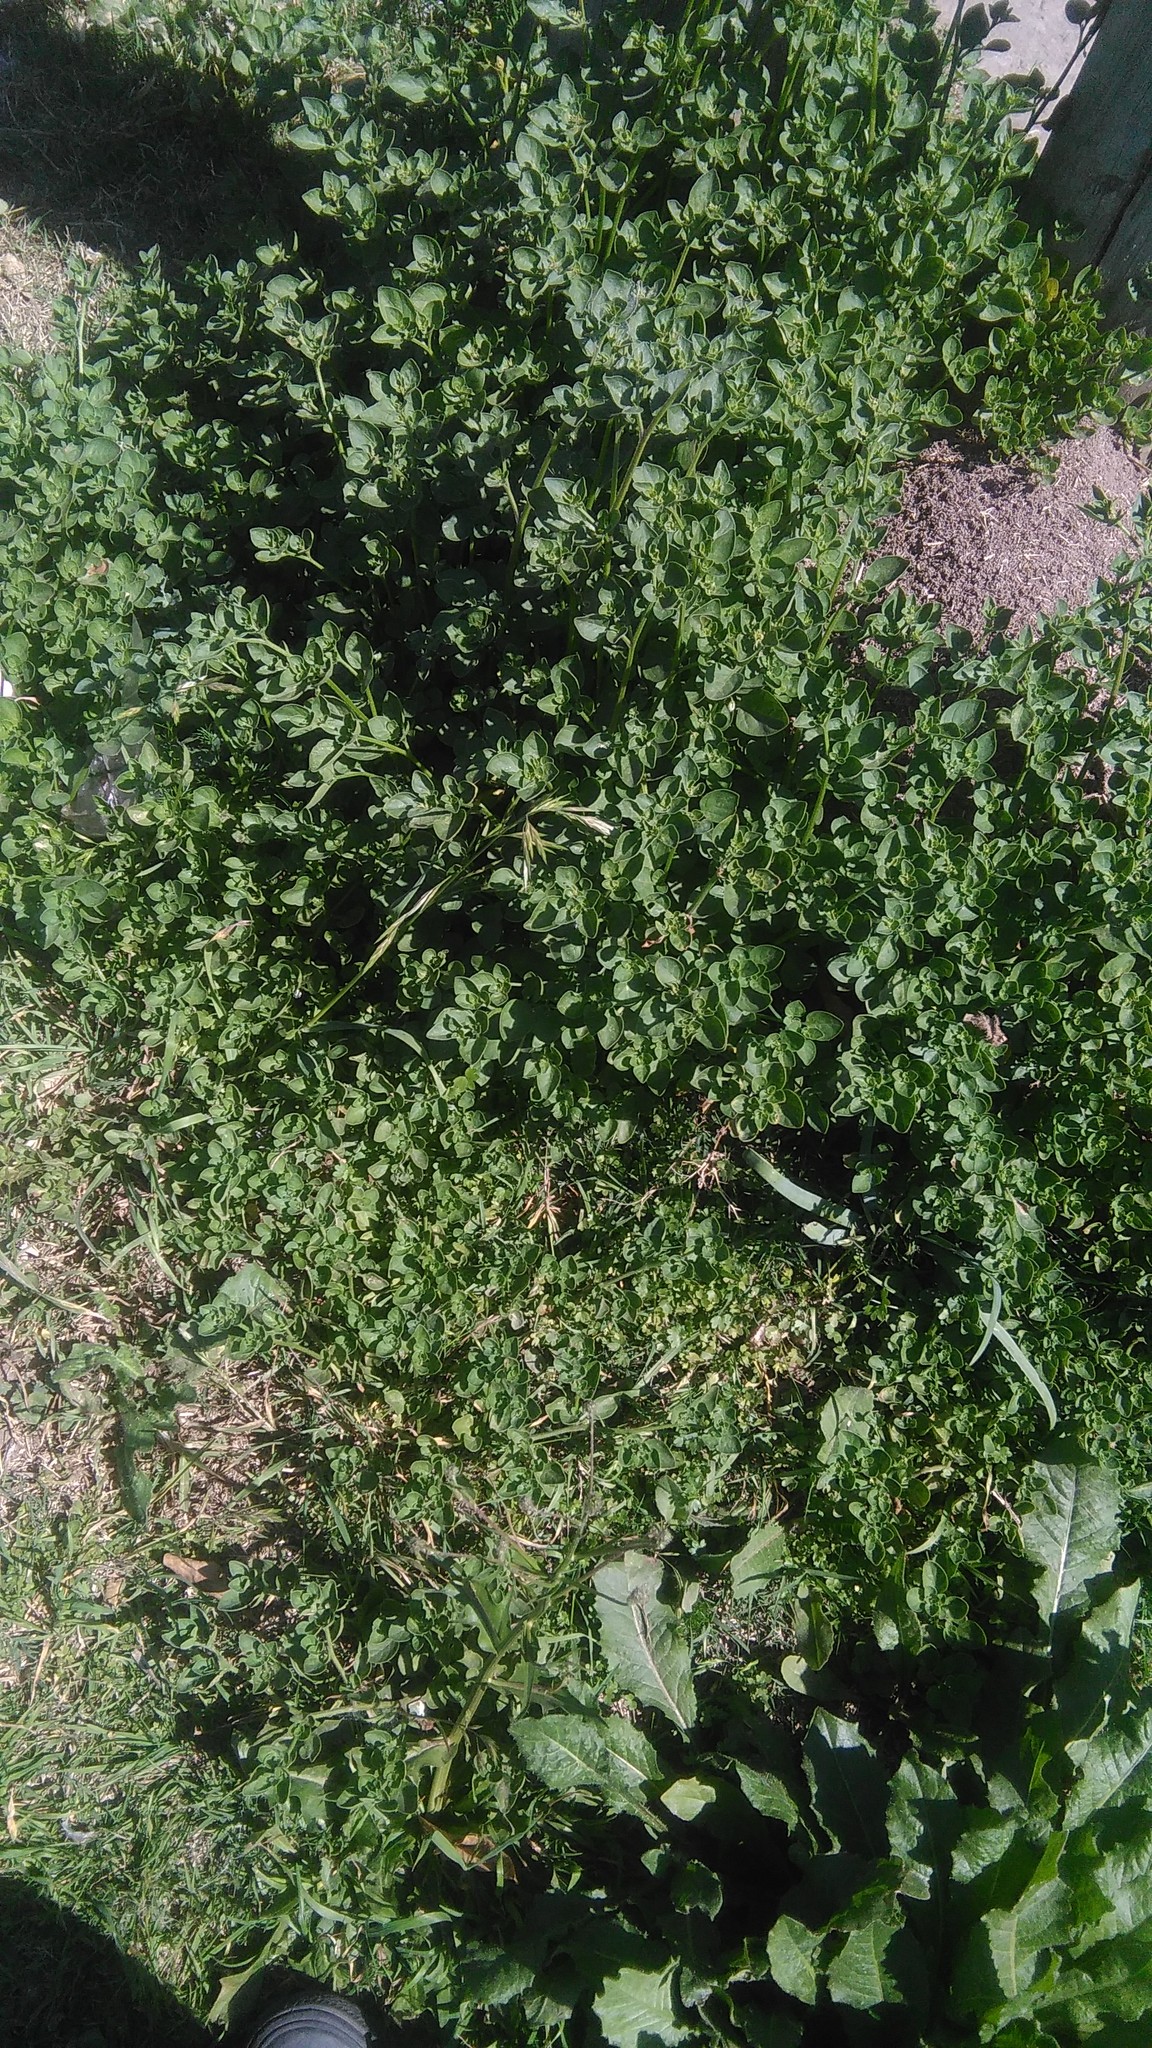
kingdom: Plantae
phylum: Tracheophyta
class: Magnoliopsida
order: Solanales
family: Solanaceae
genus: Salpichroa
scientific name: Salpichroa origanifolia
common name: Lily-of-the-valley-vine
